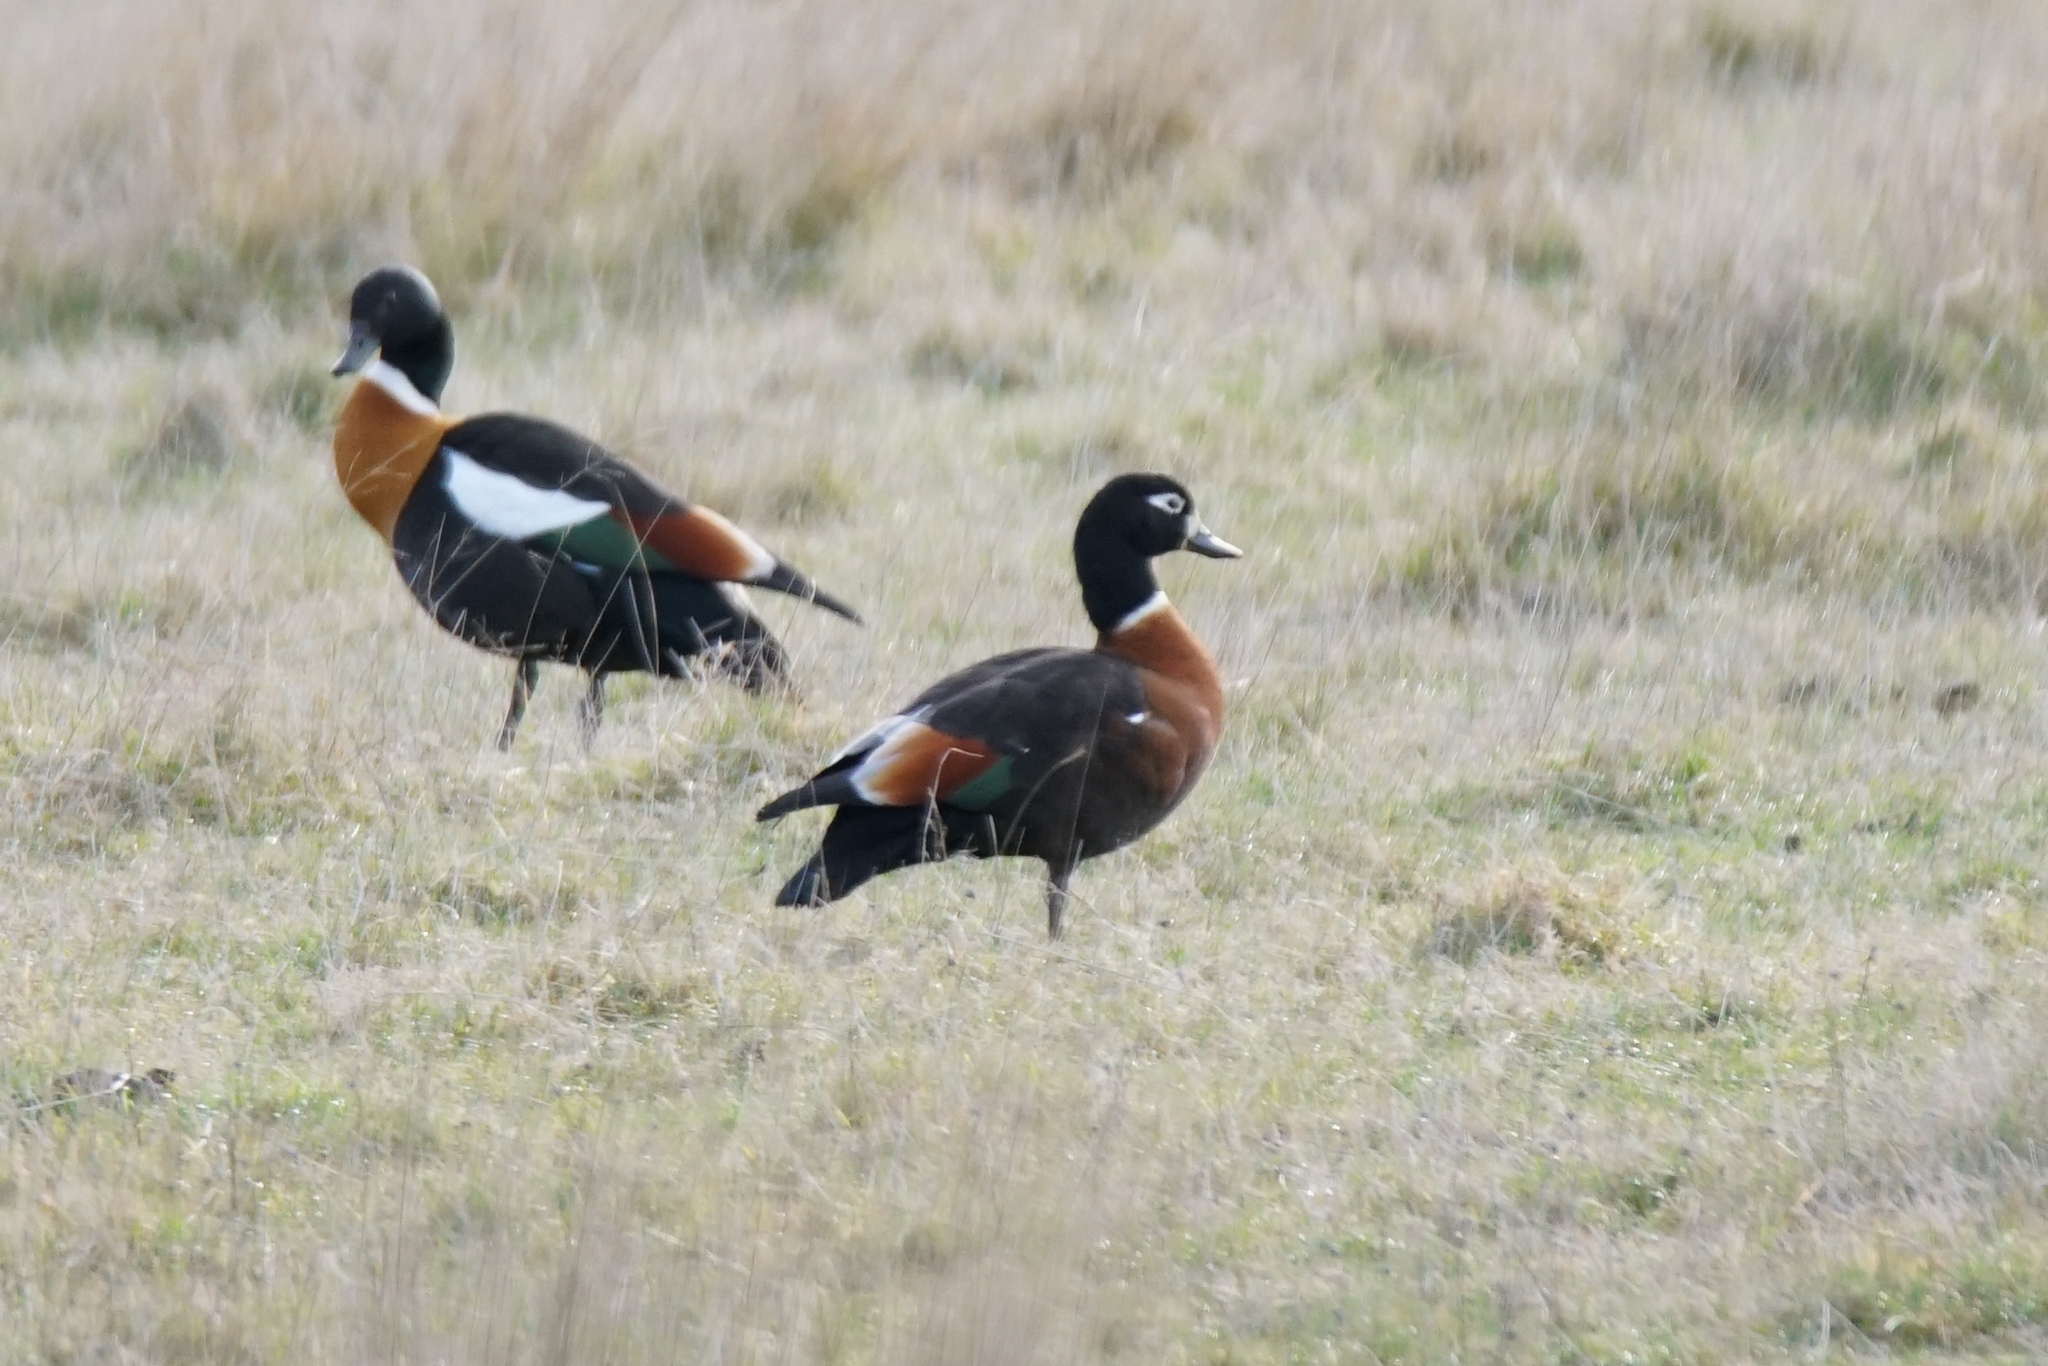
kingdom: Animalia
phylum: Chordata
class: Aves
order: Anseriformes
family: Anatidae
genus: Tadorna
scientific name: Tadorna tadornoides
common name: Australian shelduck
